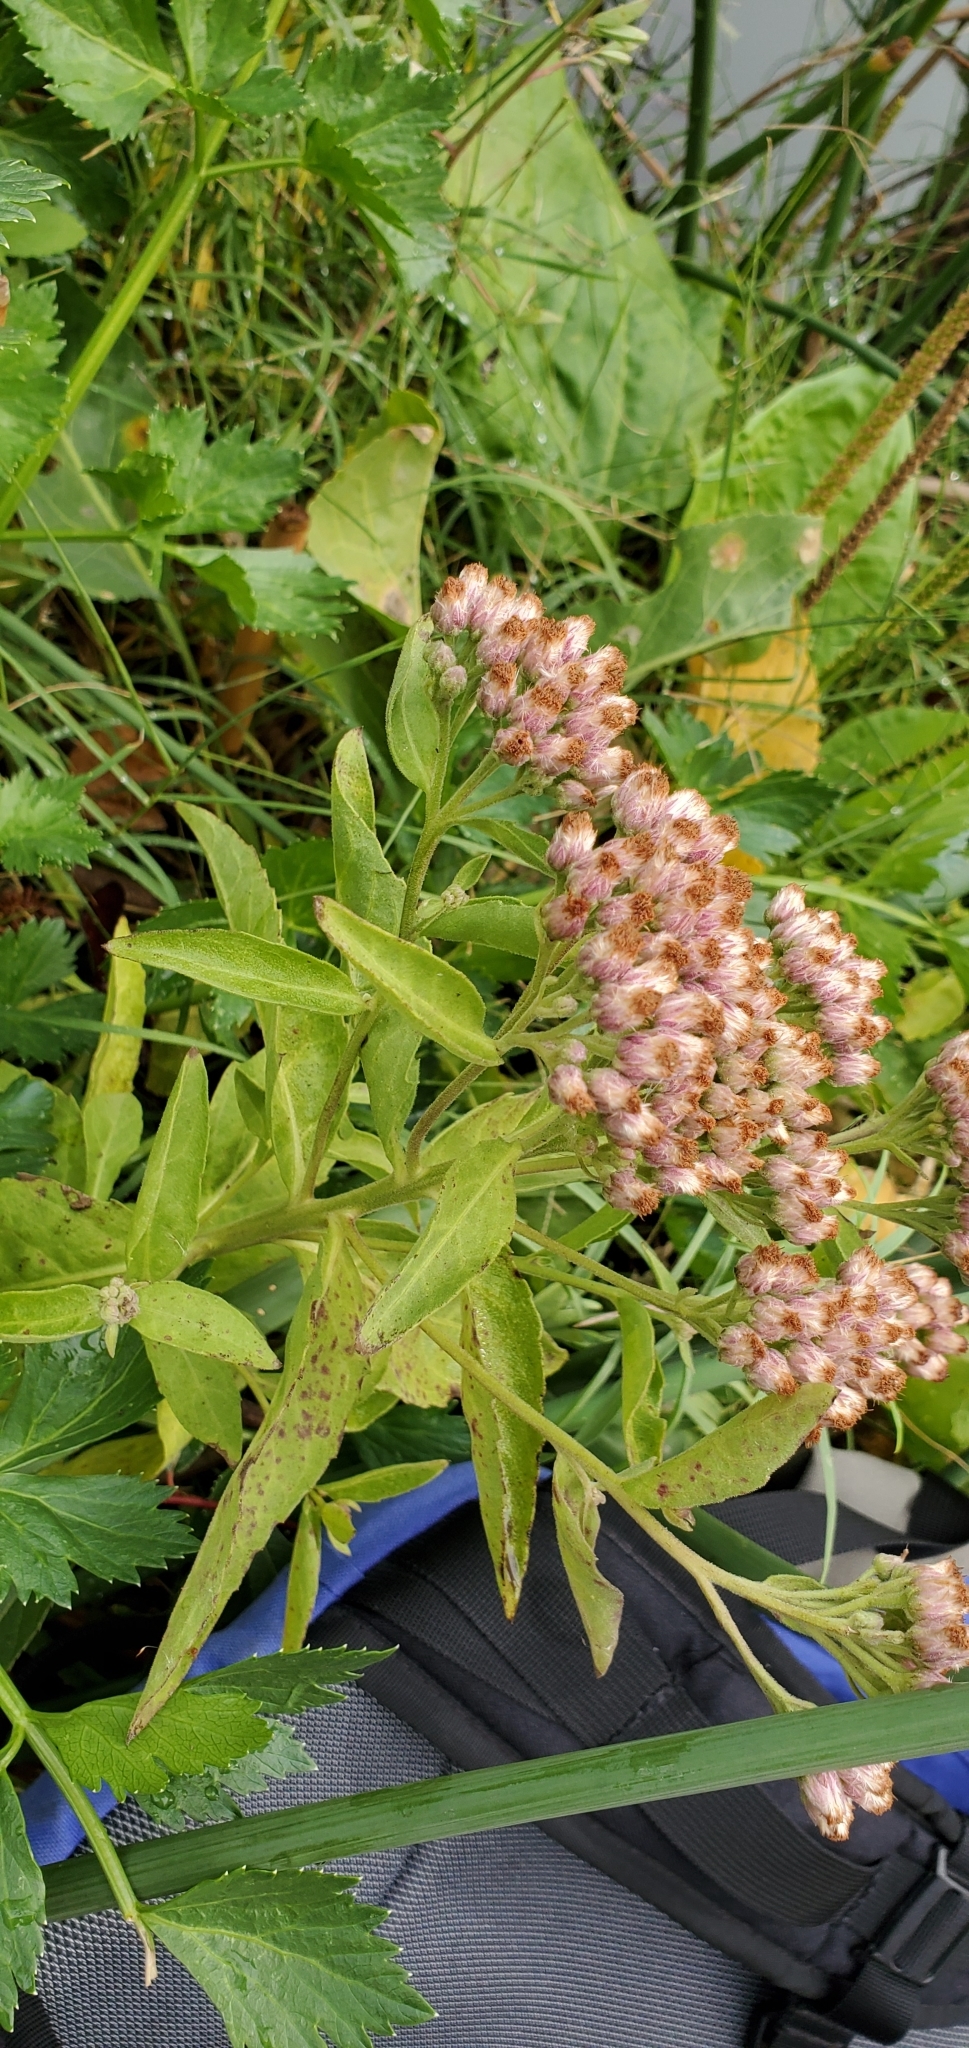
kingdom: Plantae
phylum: Tracheophyta
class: Magnoliopsida
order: Asterales
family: Asteraceae
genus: Pluchea
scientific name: Pluchea odorata
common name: Saltmarsh fleabane
